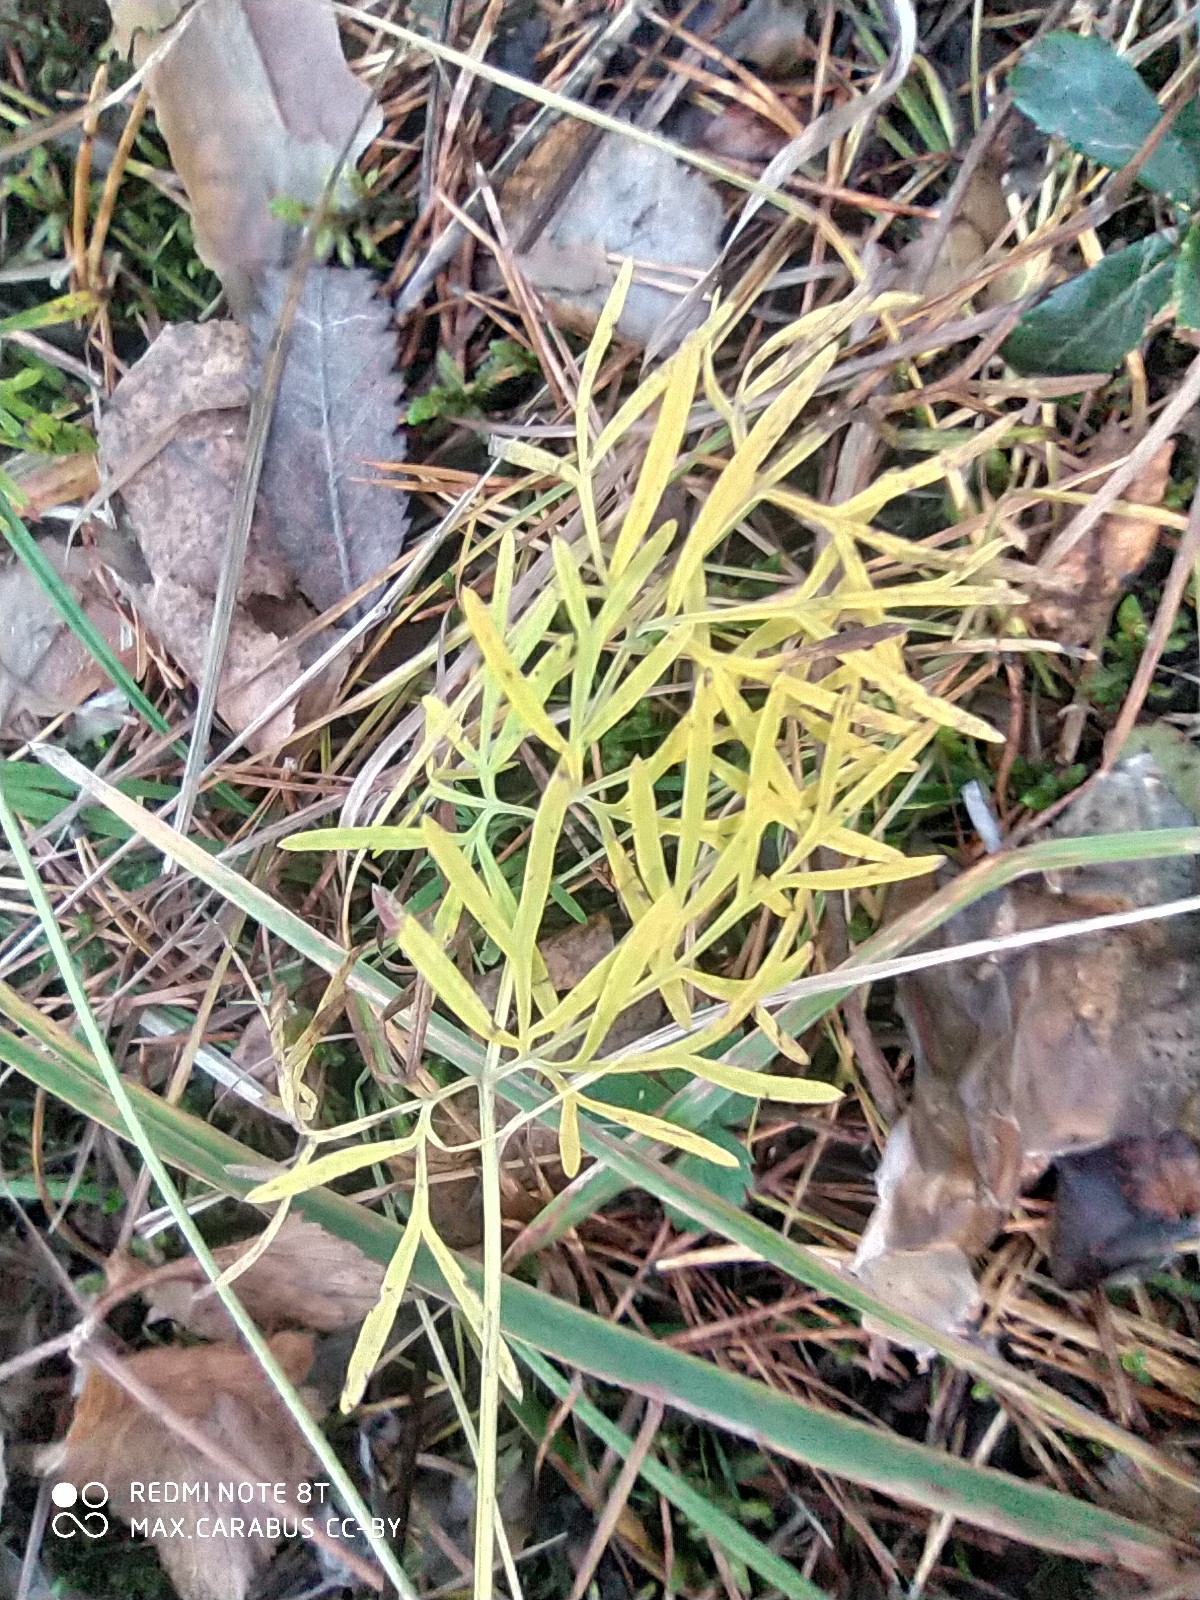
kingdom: Plantae
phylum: Tracheophyta
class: Magnoliopsida
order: Apiales
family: Apiaceae
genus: Kadenia
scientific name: Kadenia dubia
